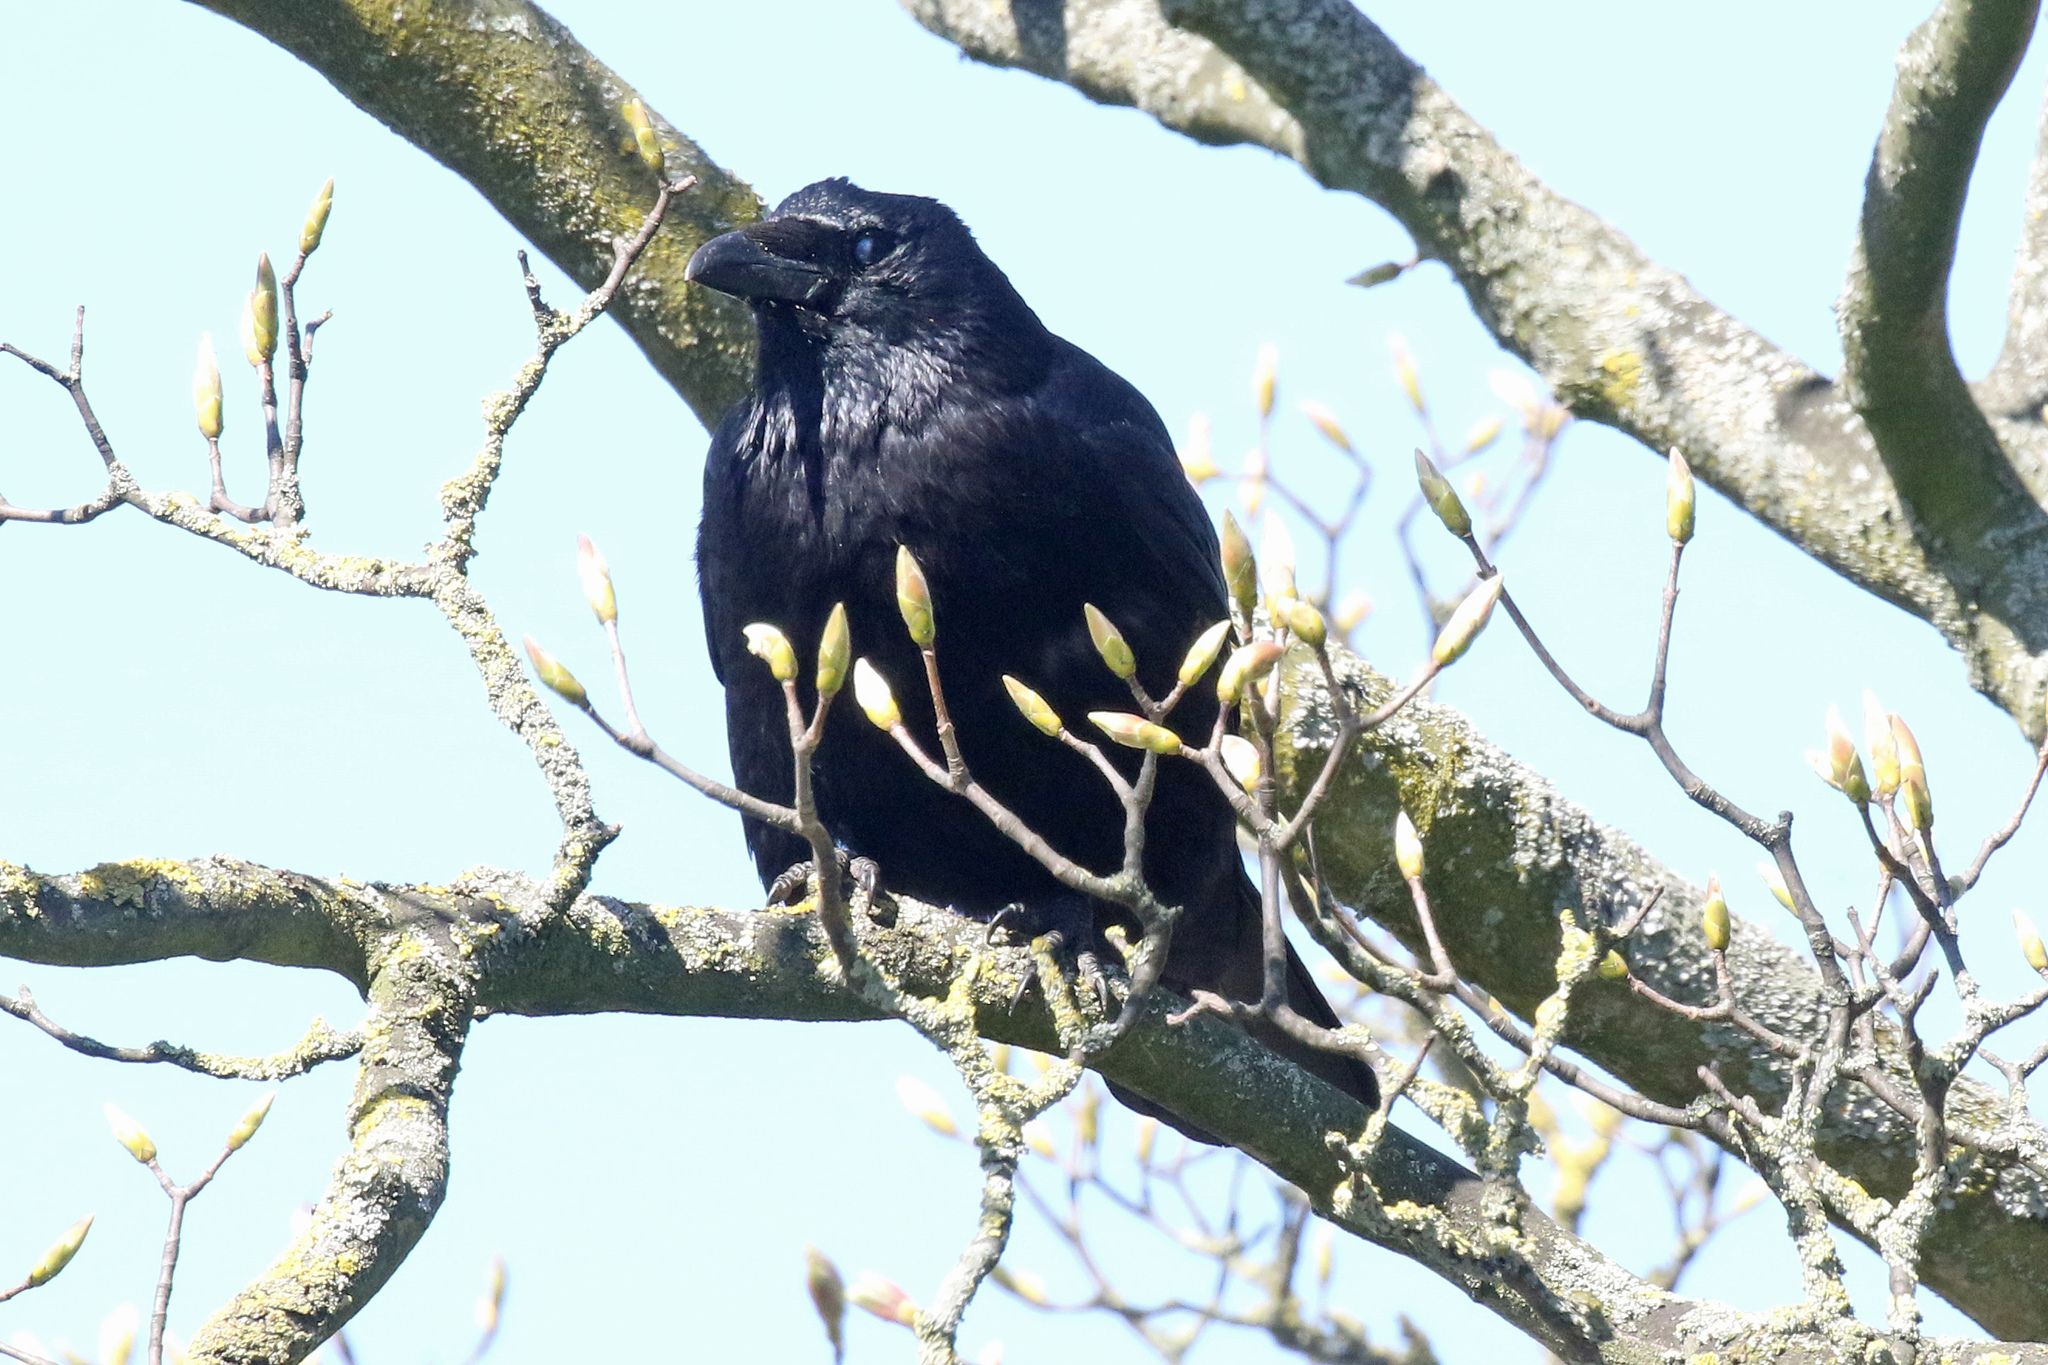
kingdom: Animalia
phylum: Chordata
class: Aves
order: Passeriformes
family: Corvidae
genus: Corvus
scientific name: Corvus corone
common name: Carrion crow
